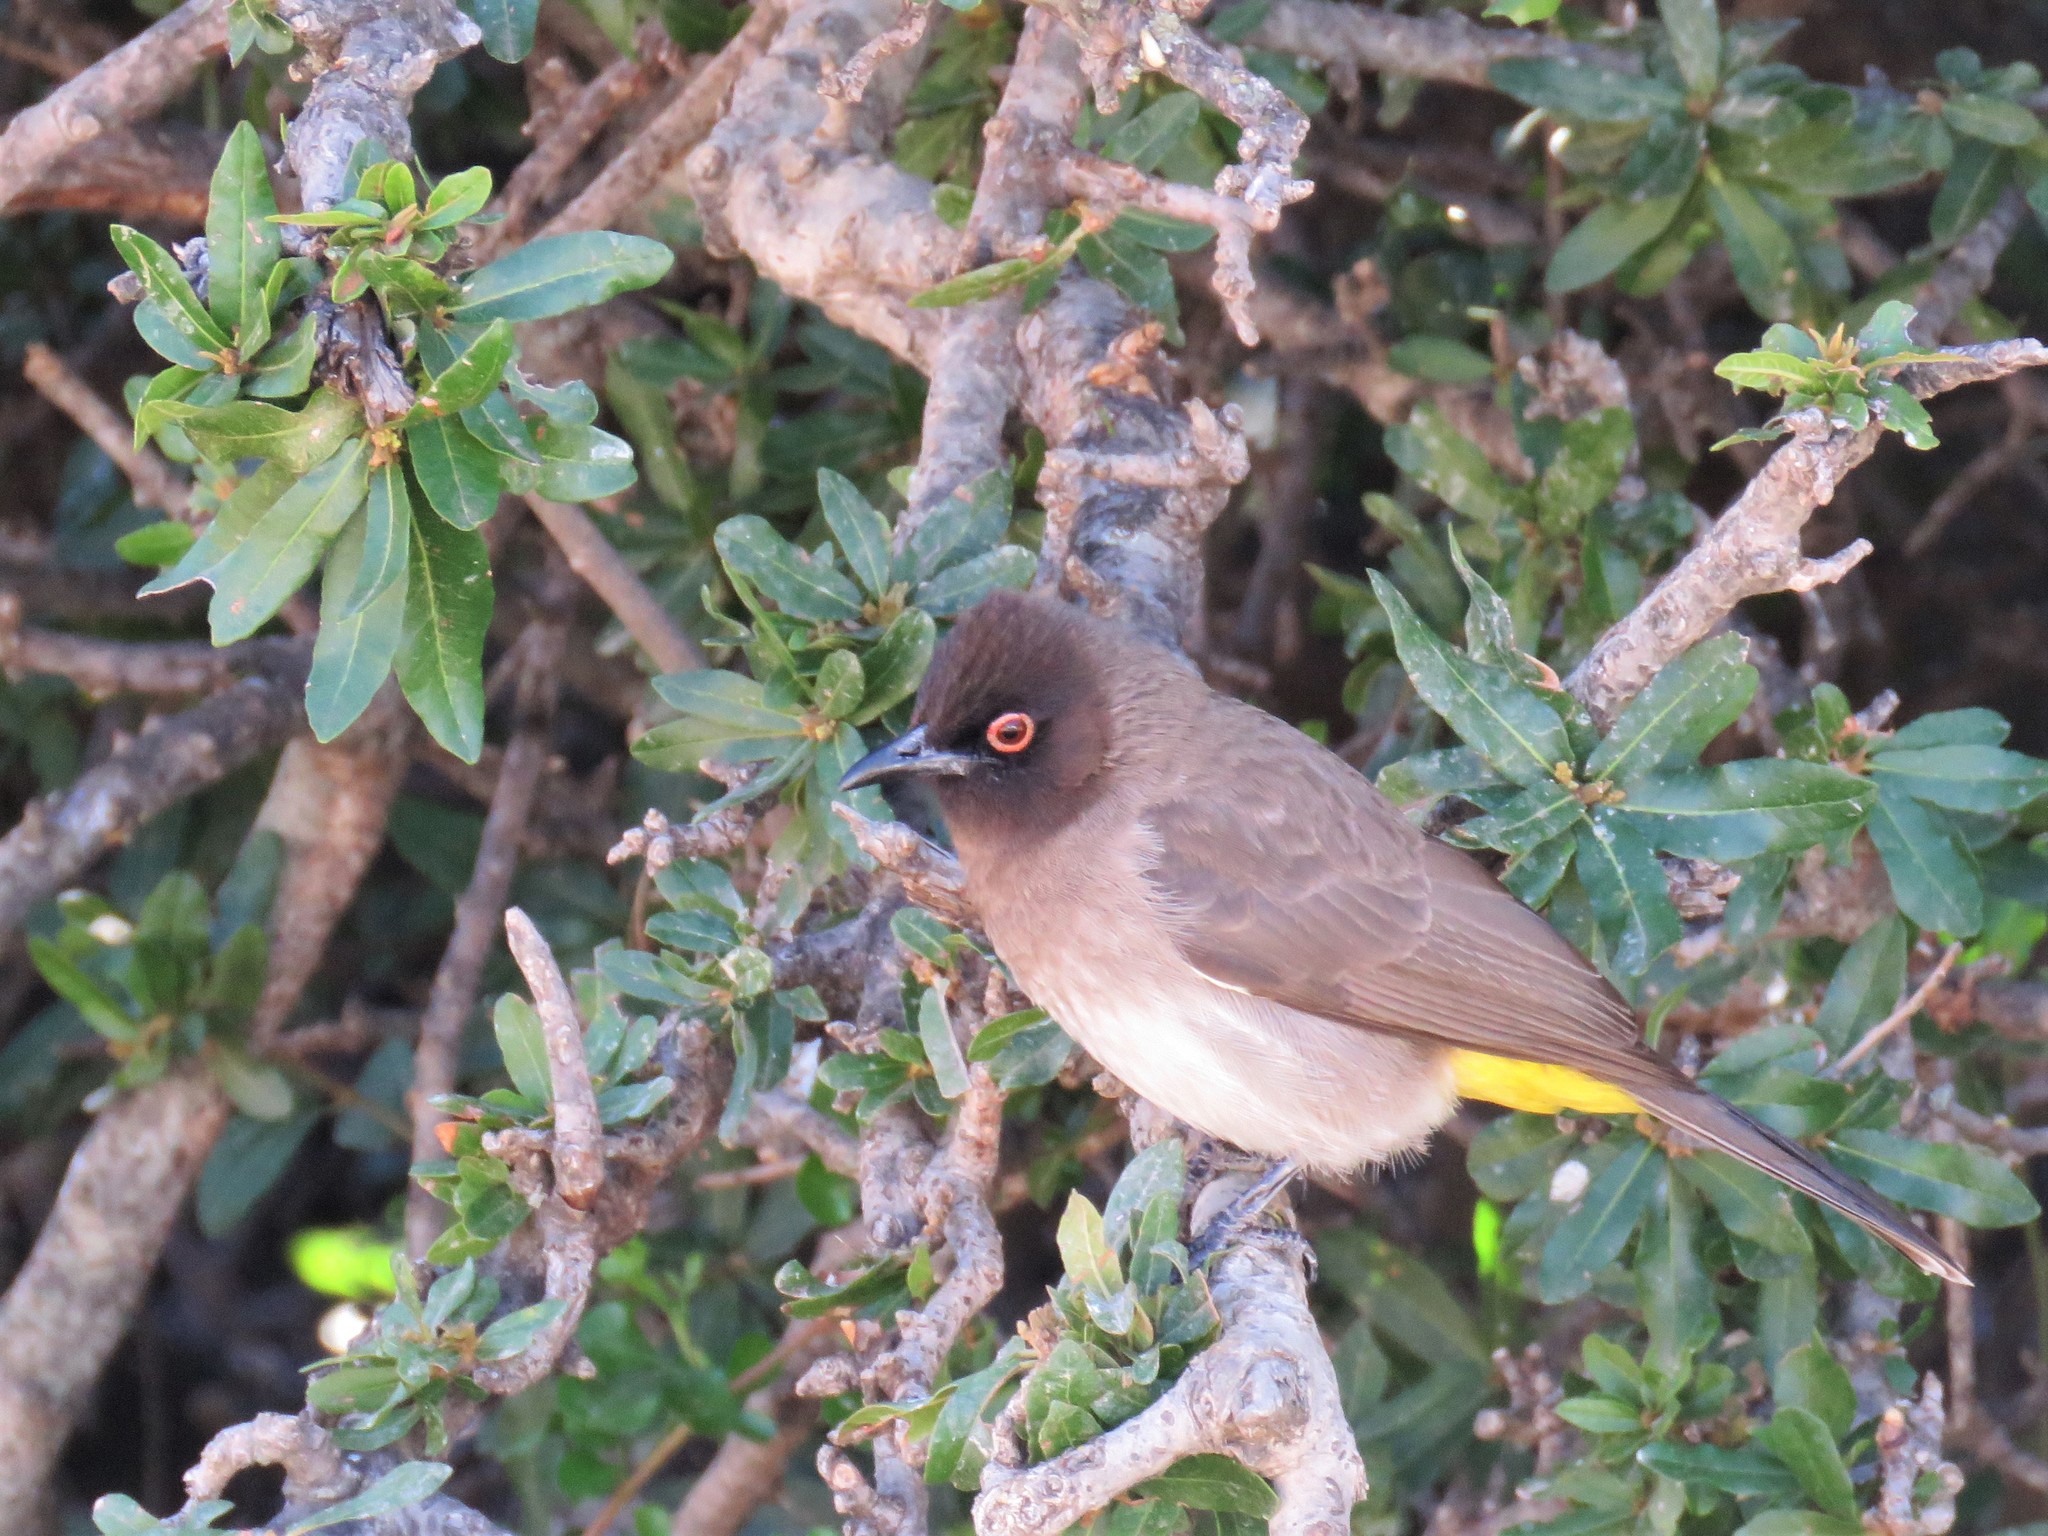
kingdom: Animalia
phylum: Chordata
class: Aves
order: Passeriformes
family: Pycnonotidae
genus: Pycnonotus
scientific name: Pycnonotus nigricans
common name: African red-eyed bulbul
